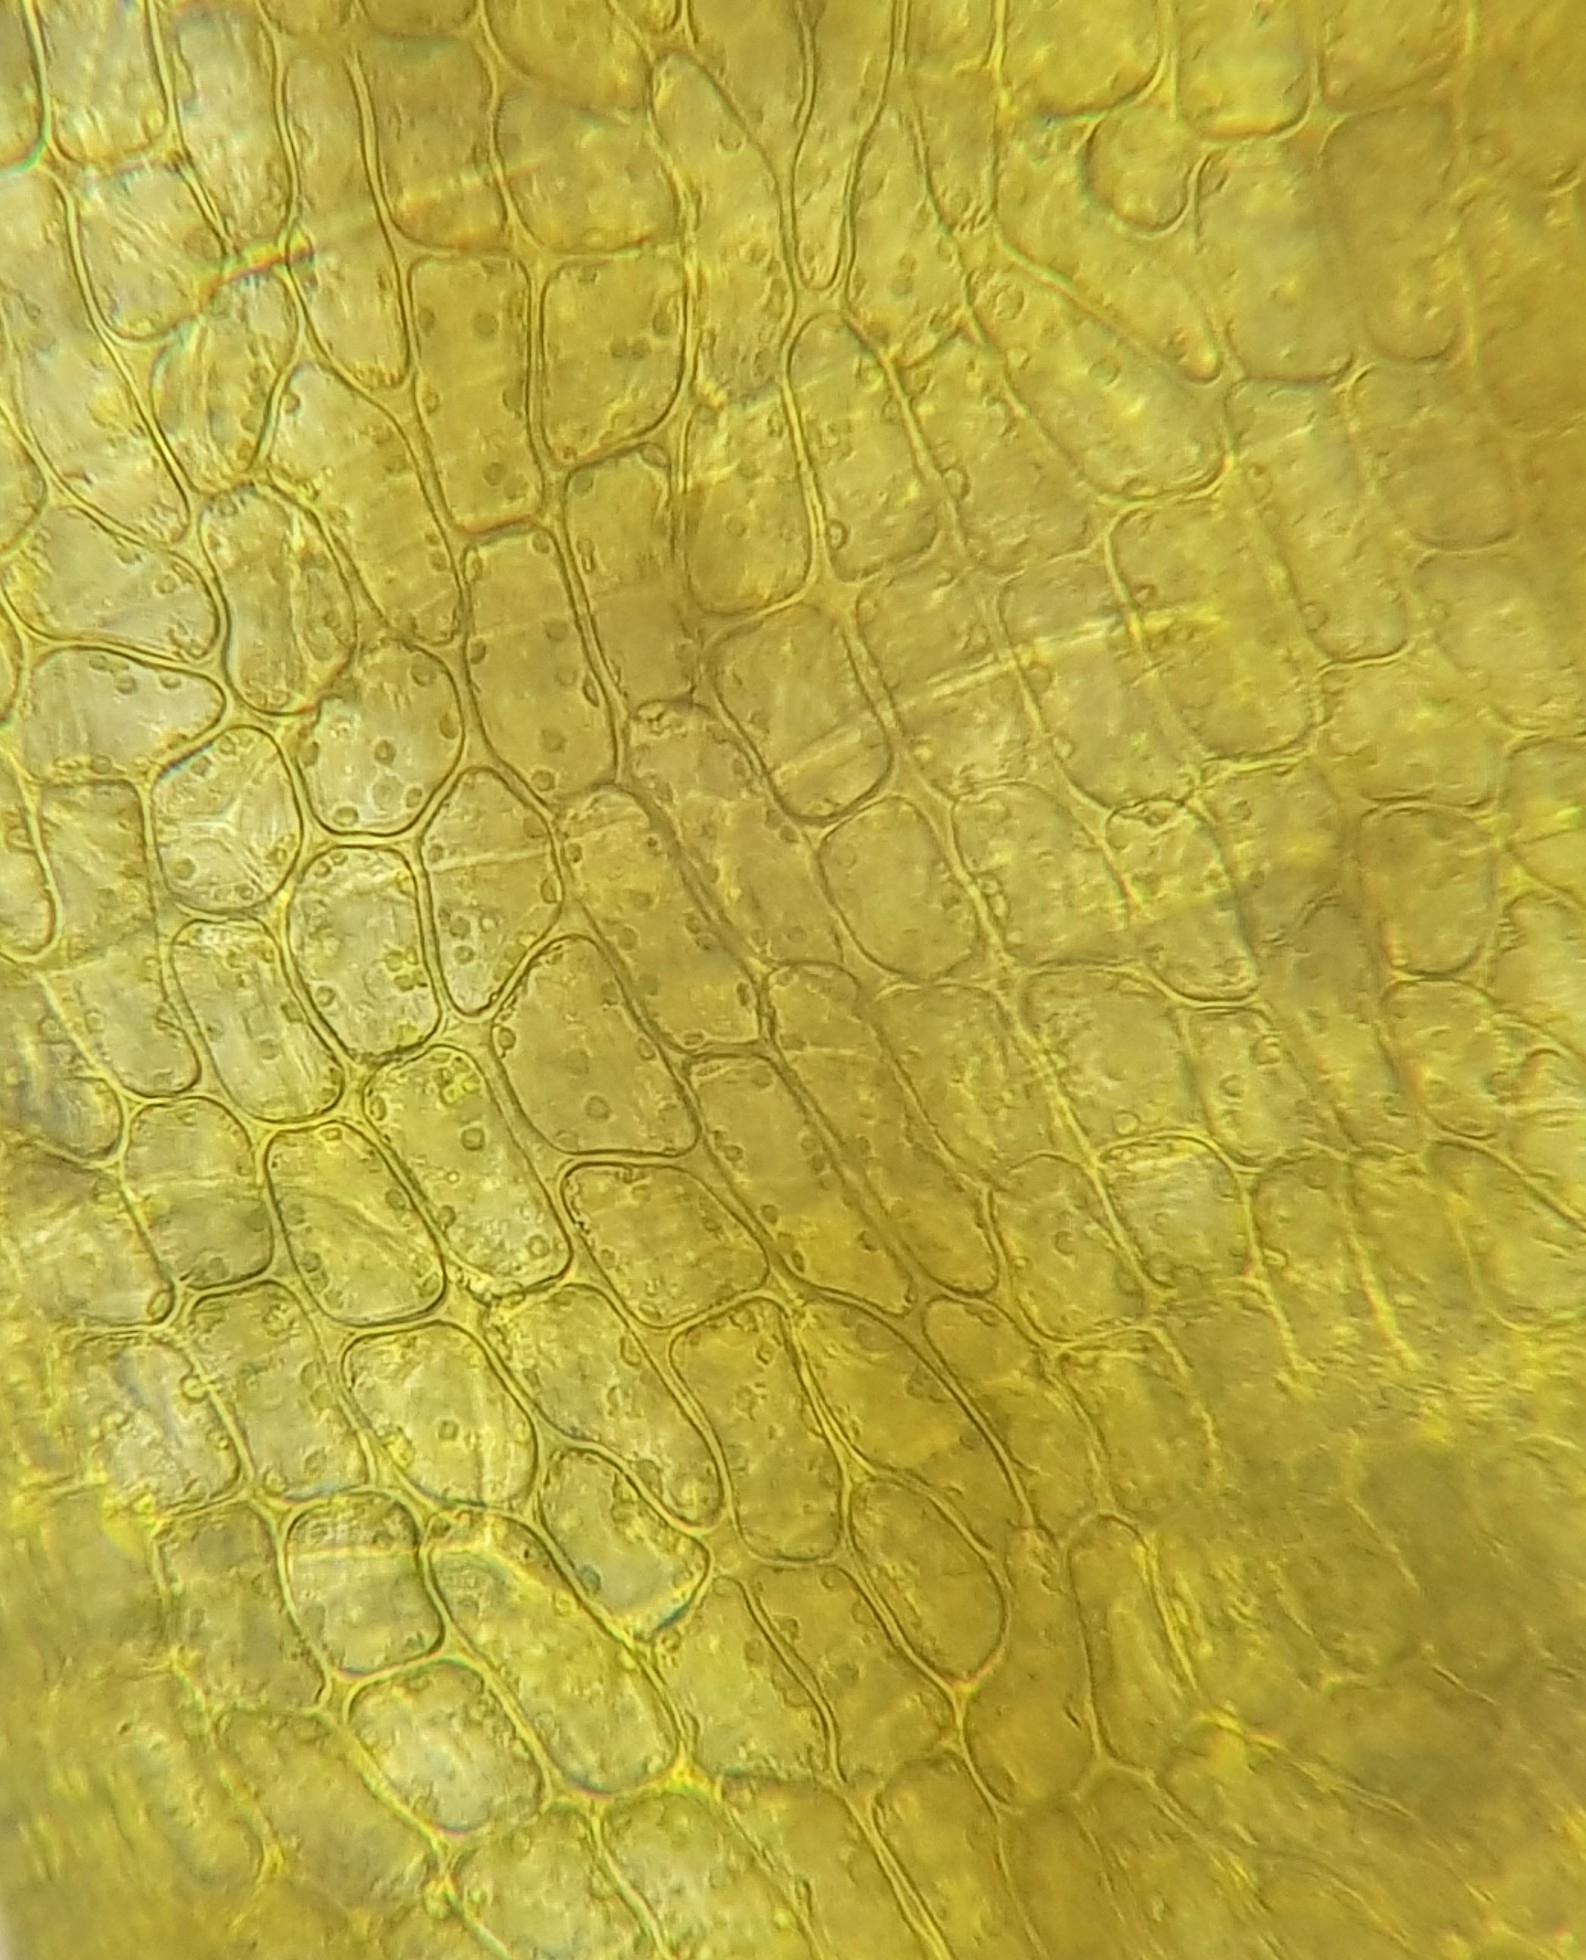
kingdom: Plantae
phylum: Bryophyta
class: Bryopsida
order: Grimmiales
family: Grimmiaceae
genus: Schistidium
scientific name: Schistidium crassipilum
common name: Thickpoint bloom moss
